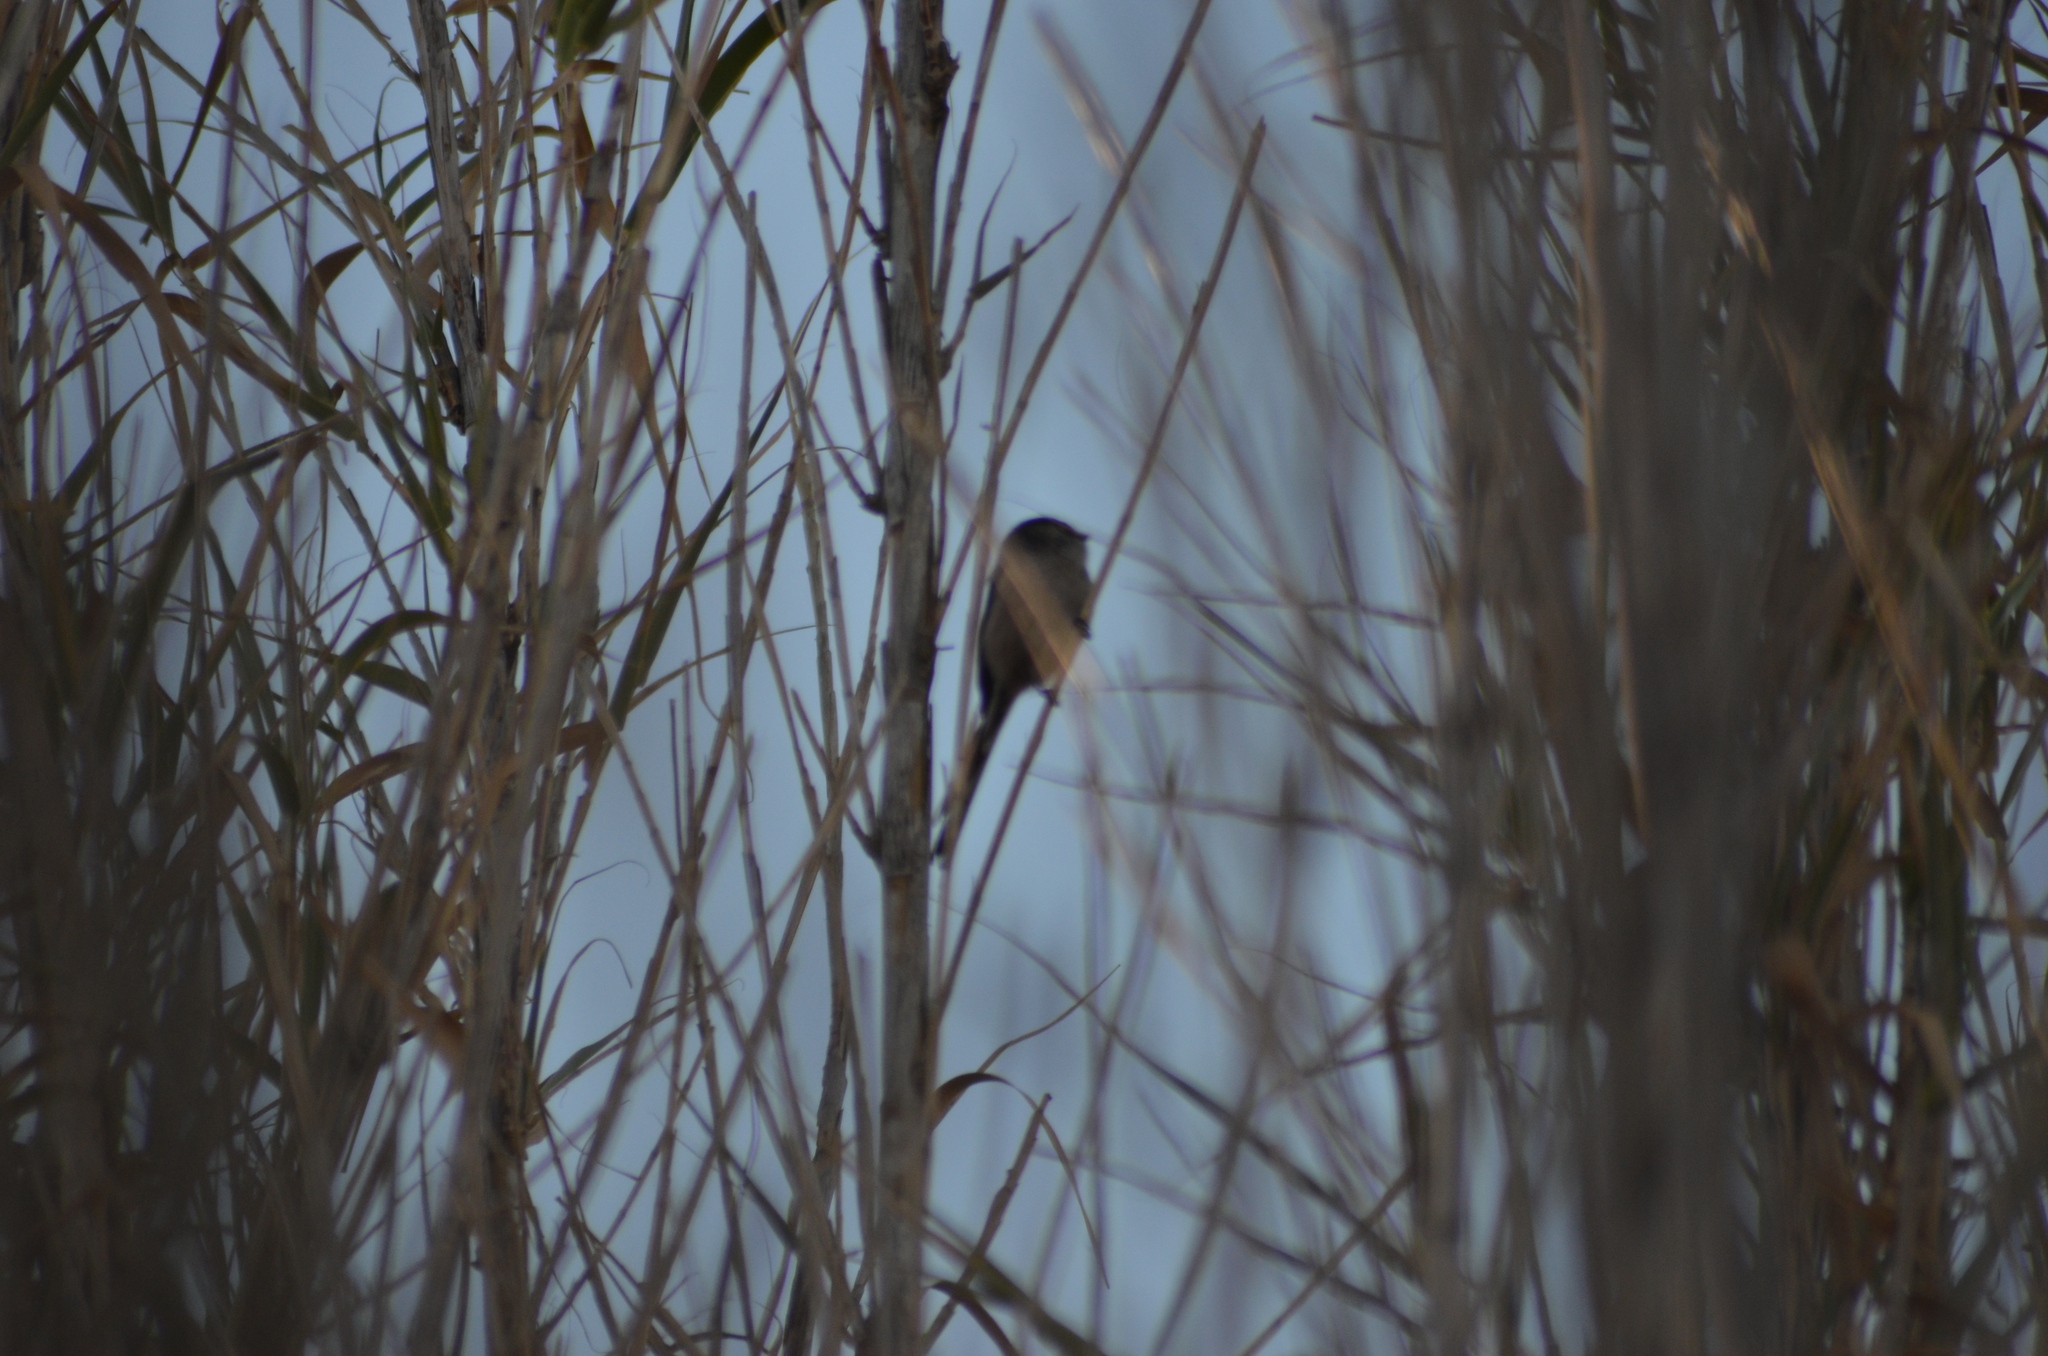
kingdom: Animalia
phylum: Chordata
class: Aves
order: Passeriformes
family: Aegithalidae
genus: Aegithalos
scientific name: Aegithalos caudatus
